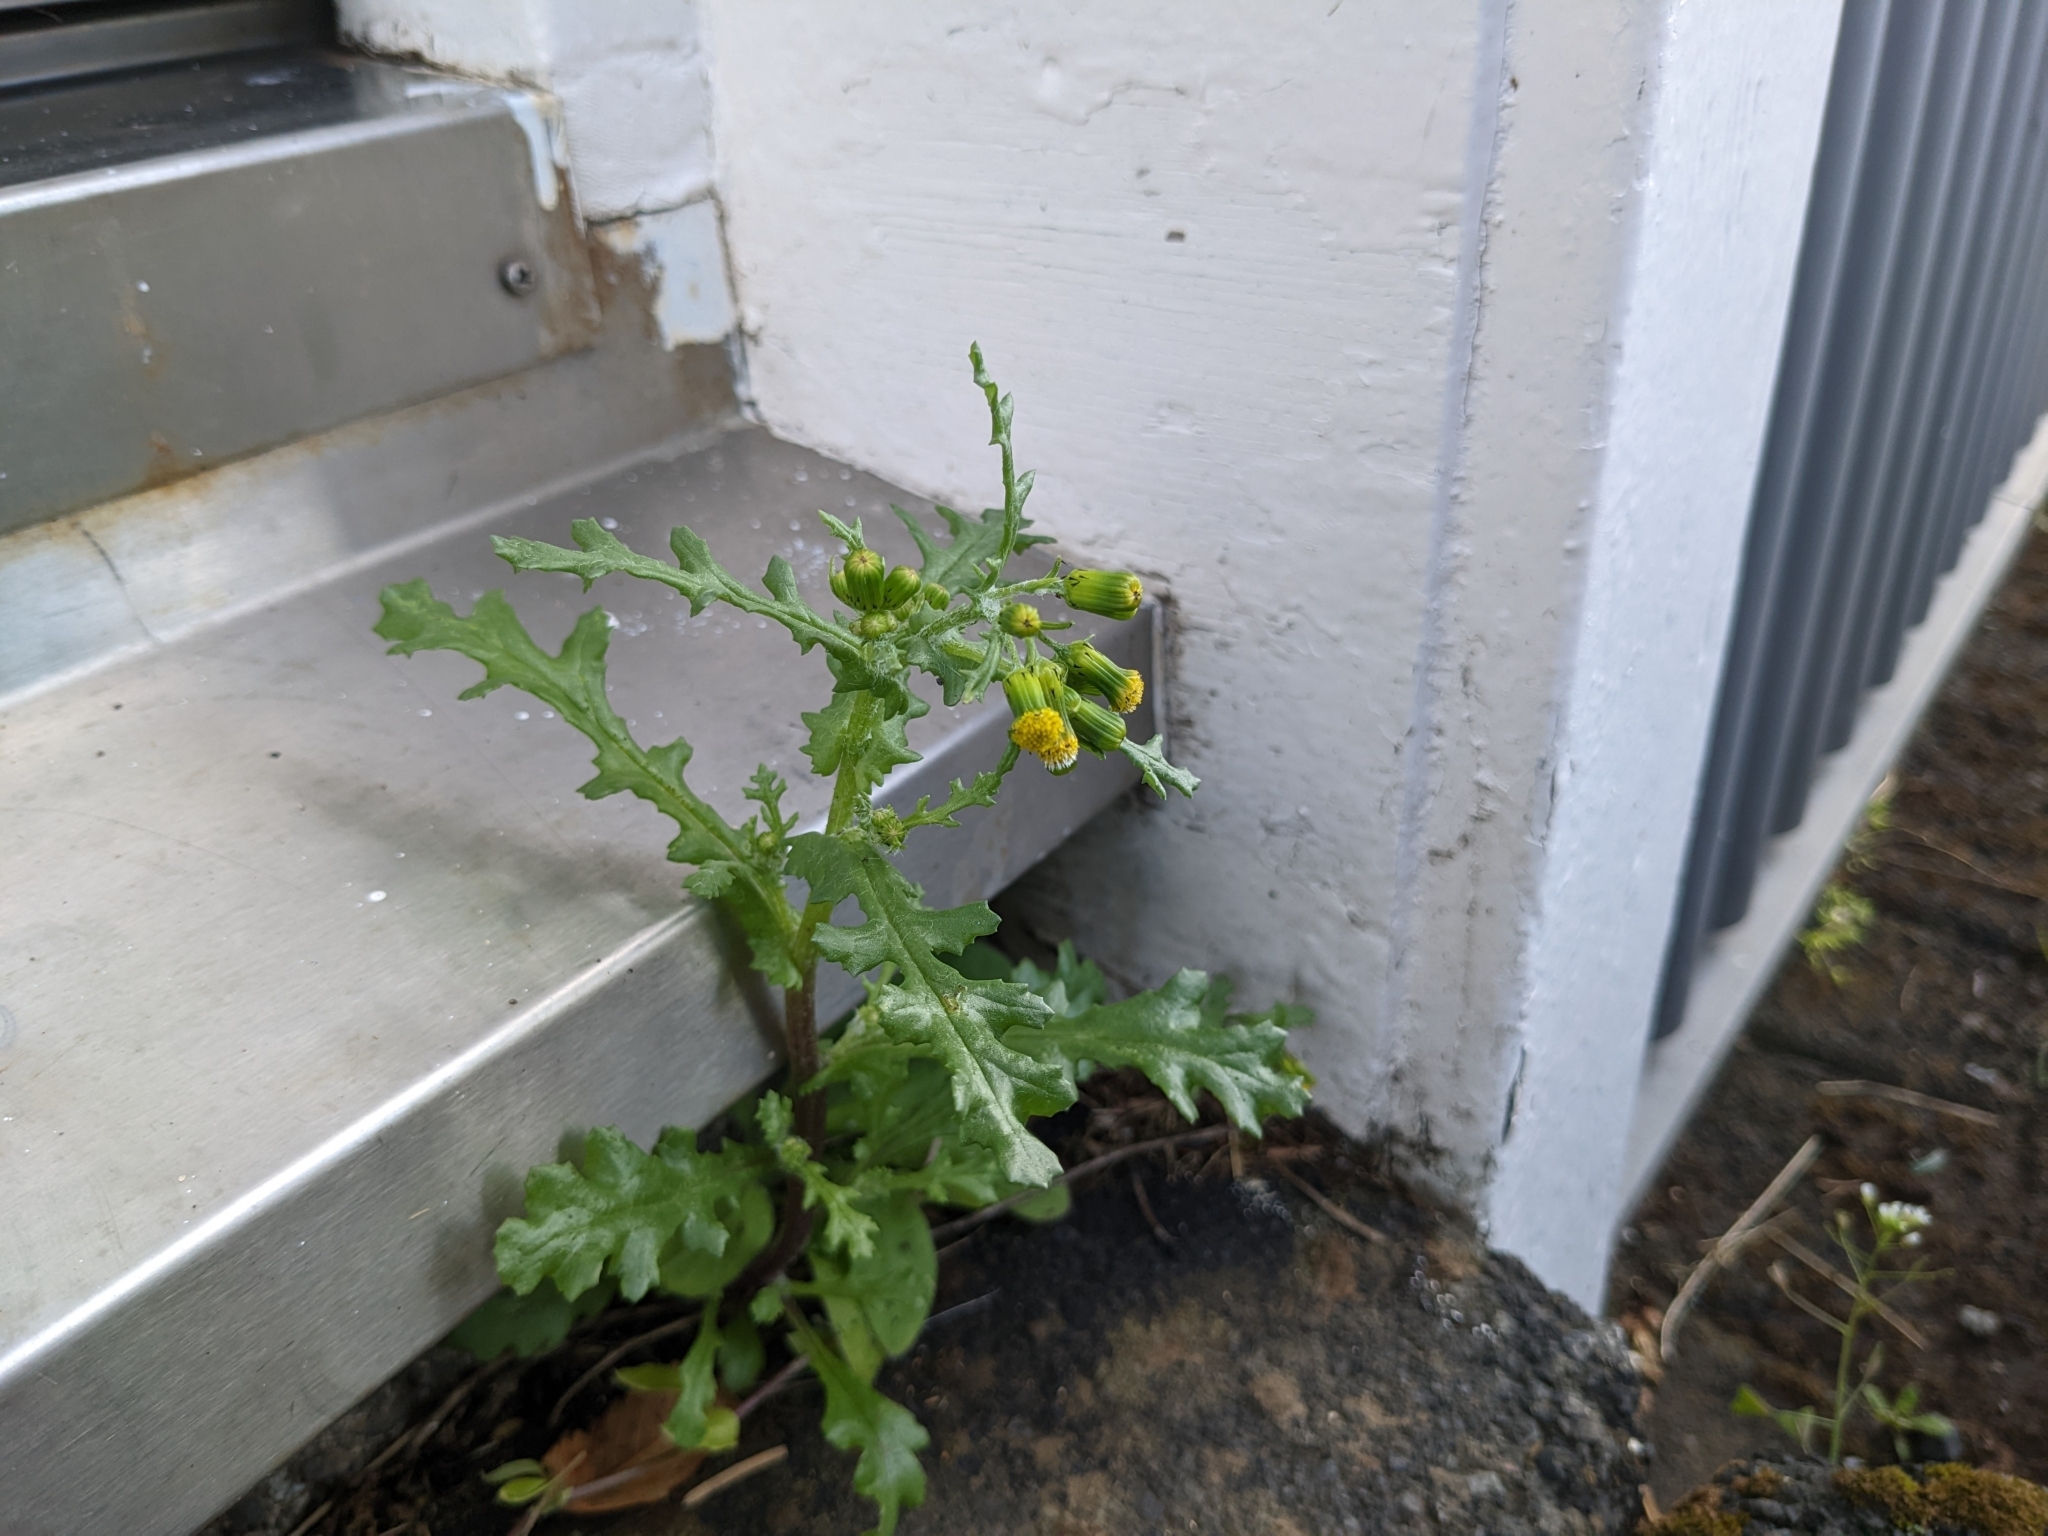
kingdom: Plantae
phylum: Tracheophyta
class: Magnoliopsida
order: Asterales
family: Asteraceae
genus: Senecio
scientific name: Senecio vulgaris
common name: Old-man-in-the-spring
